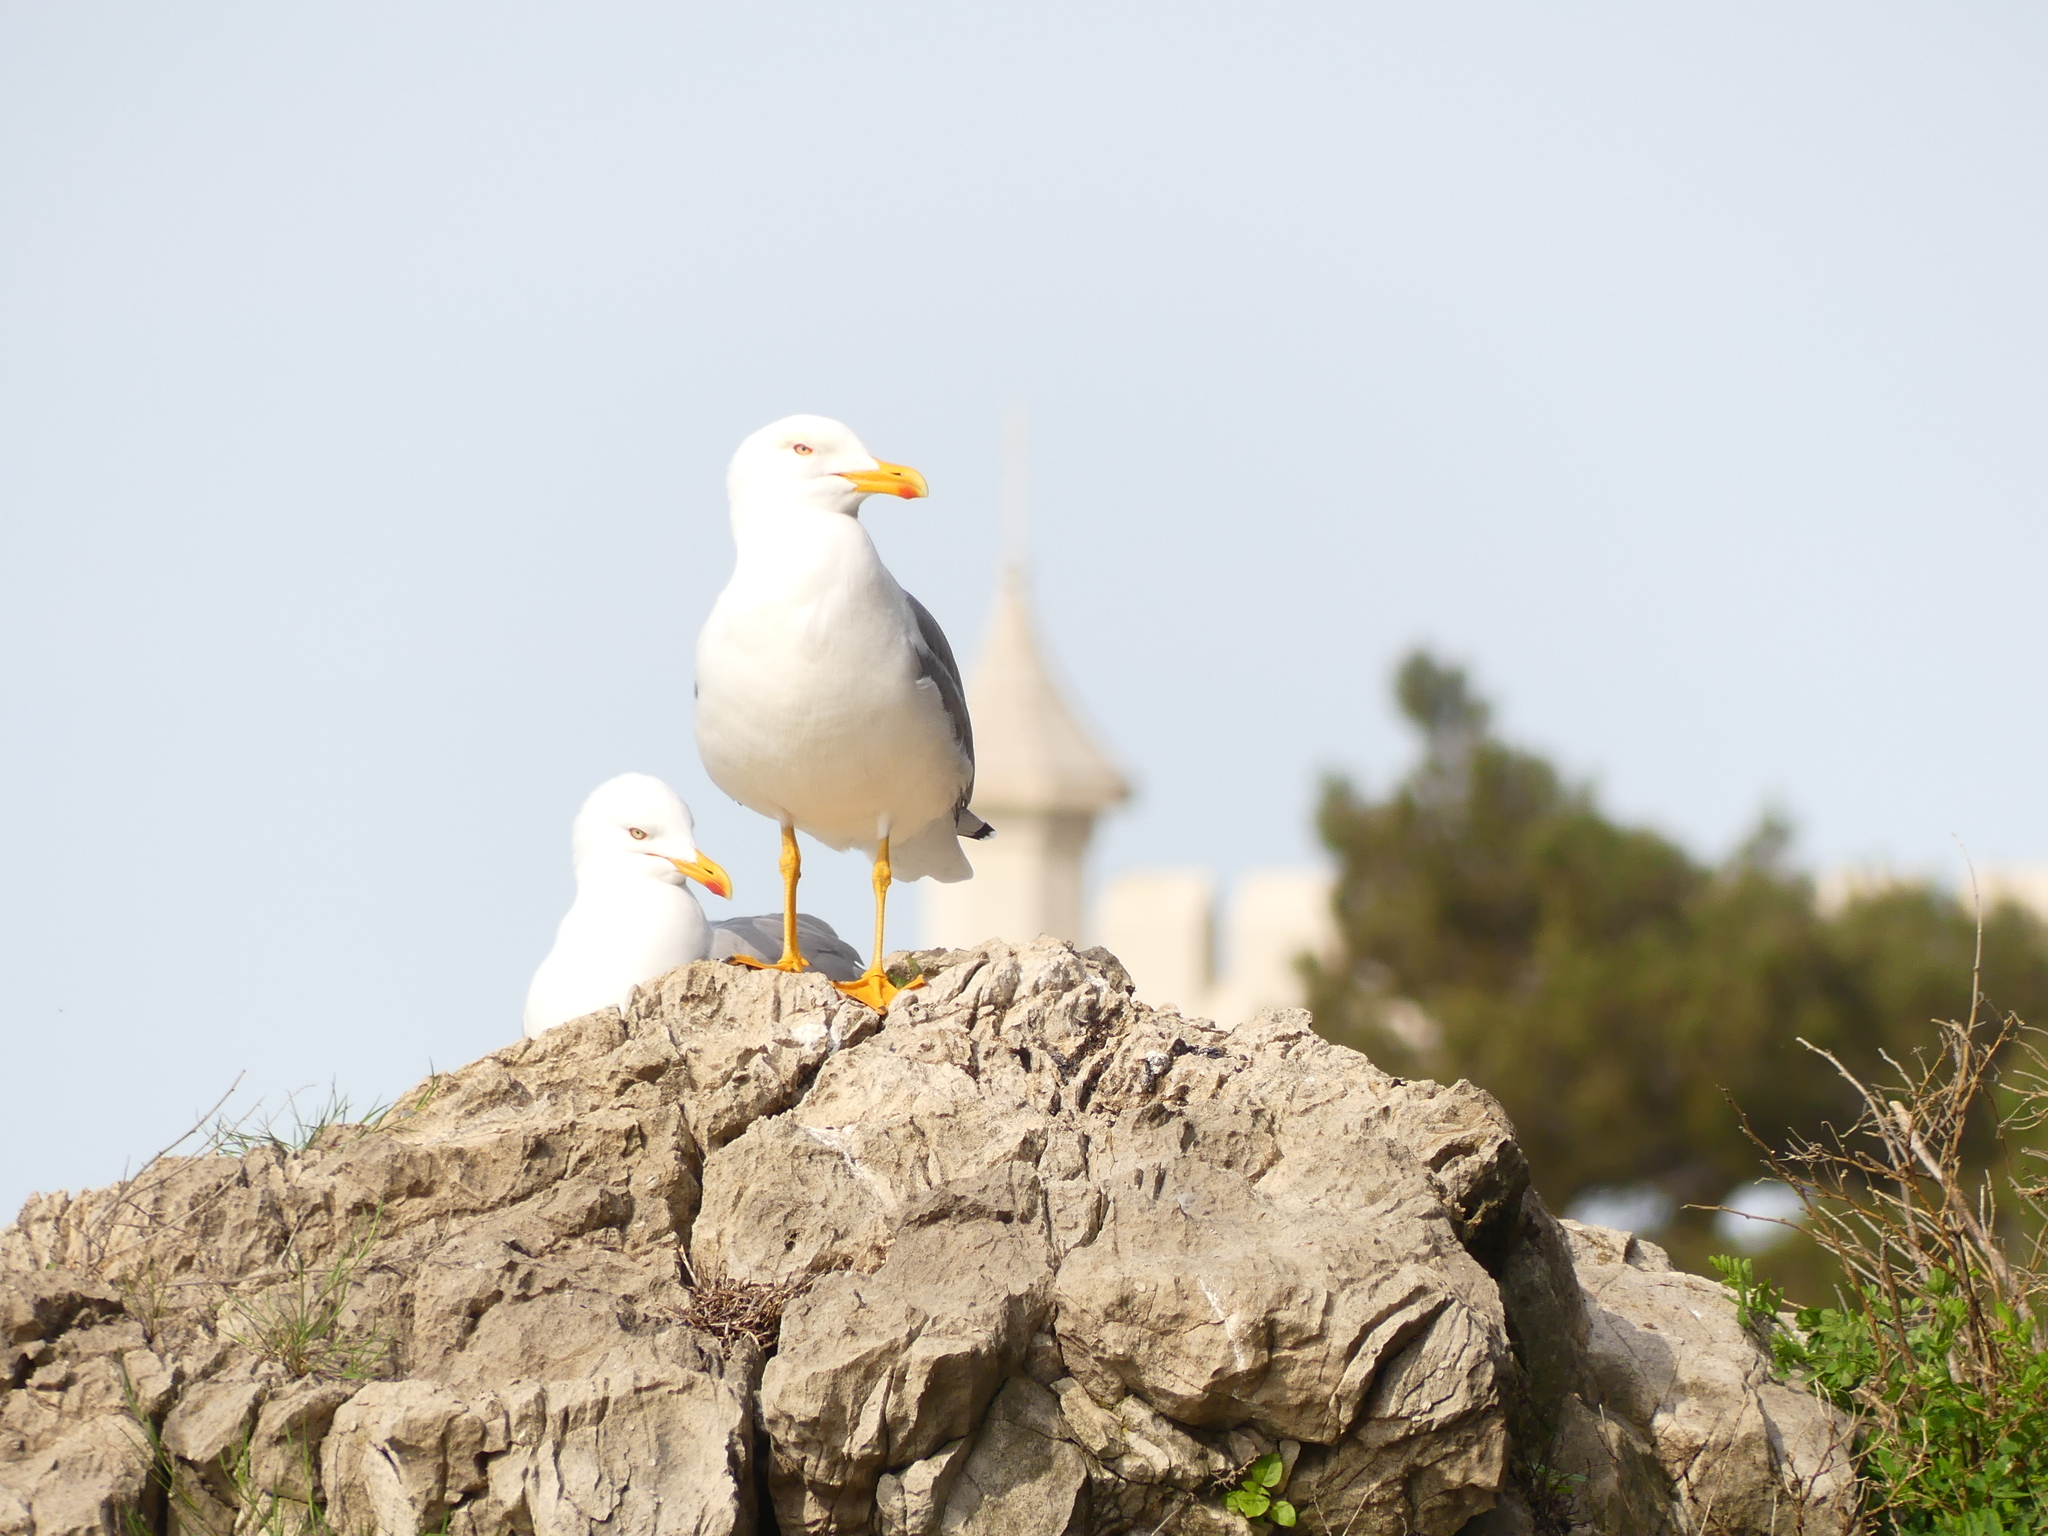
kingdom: Animalia
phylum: Chordata
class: Aves
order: Charadriiformes
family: Laridae
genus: Larus
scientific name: Larus michahellis
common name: Yellow-legged gull
